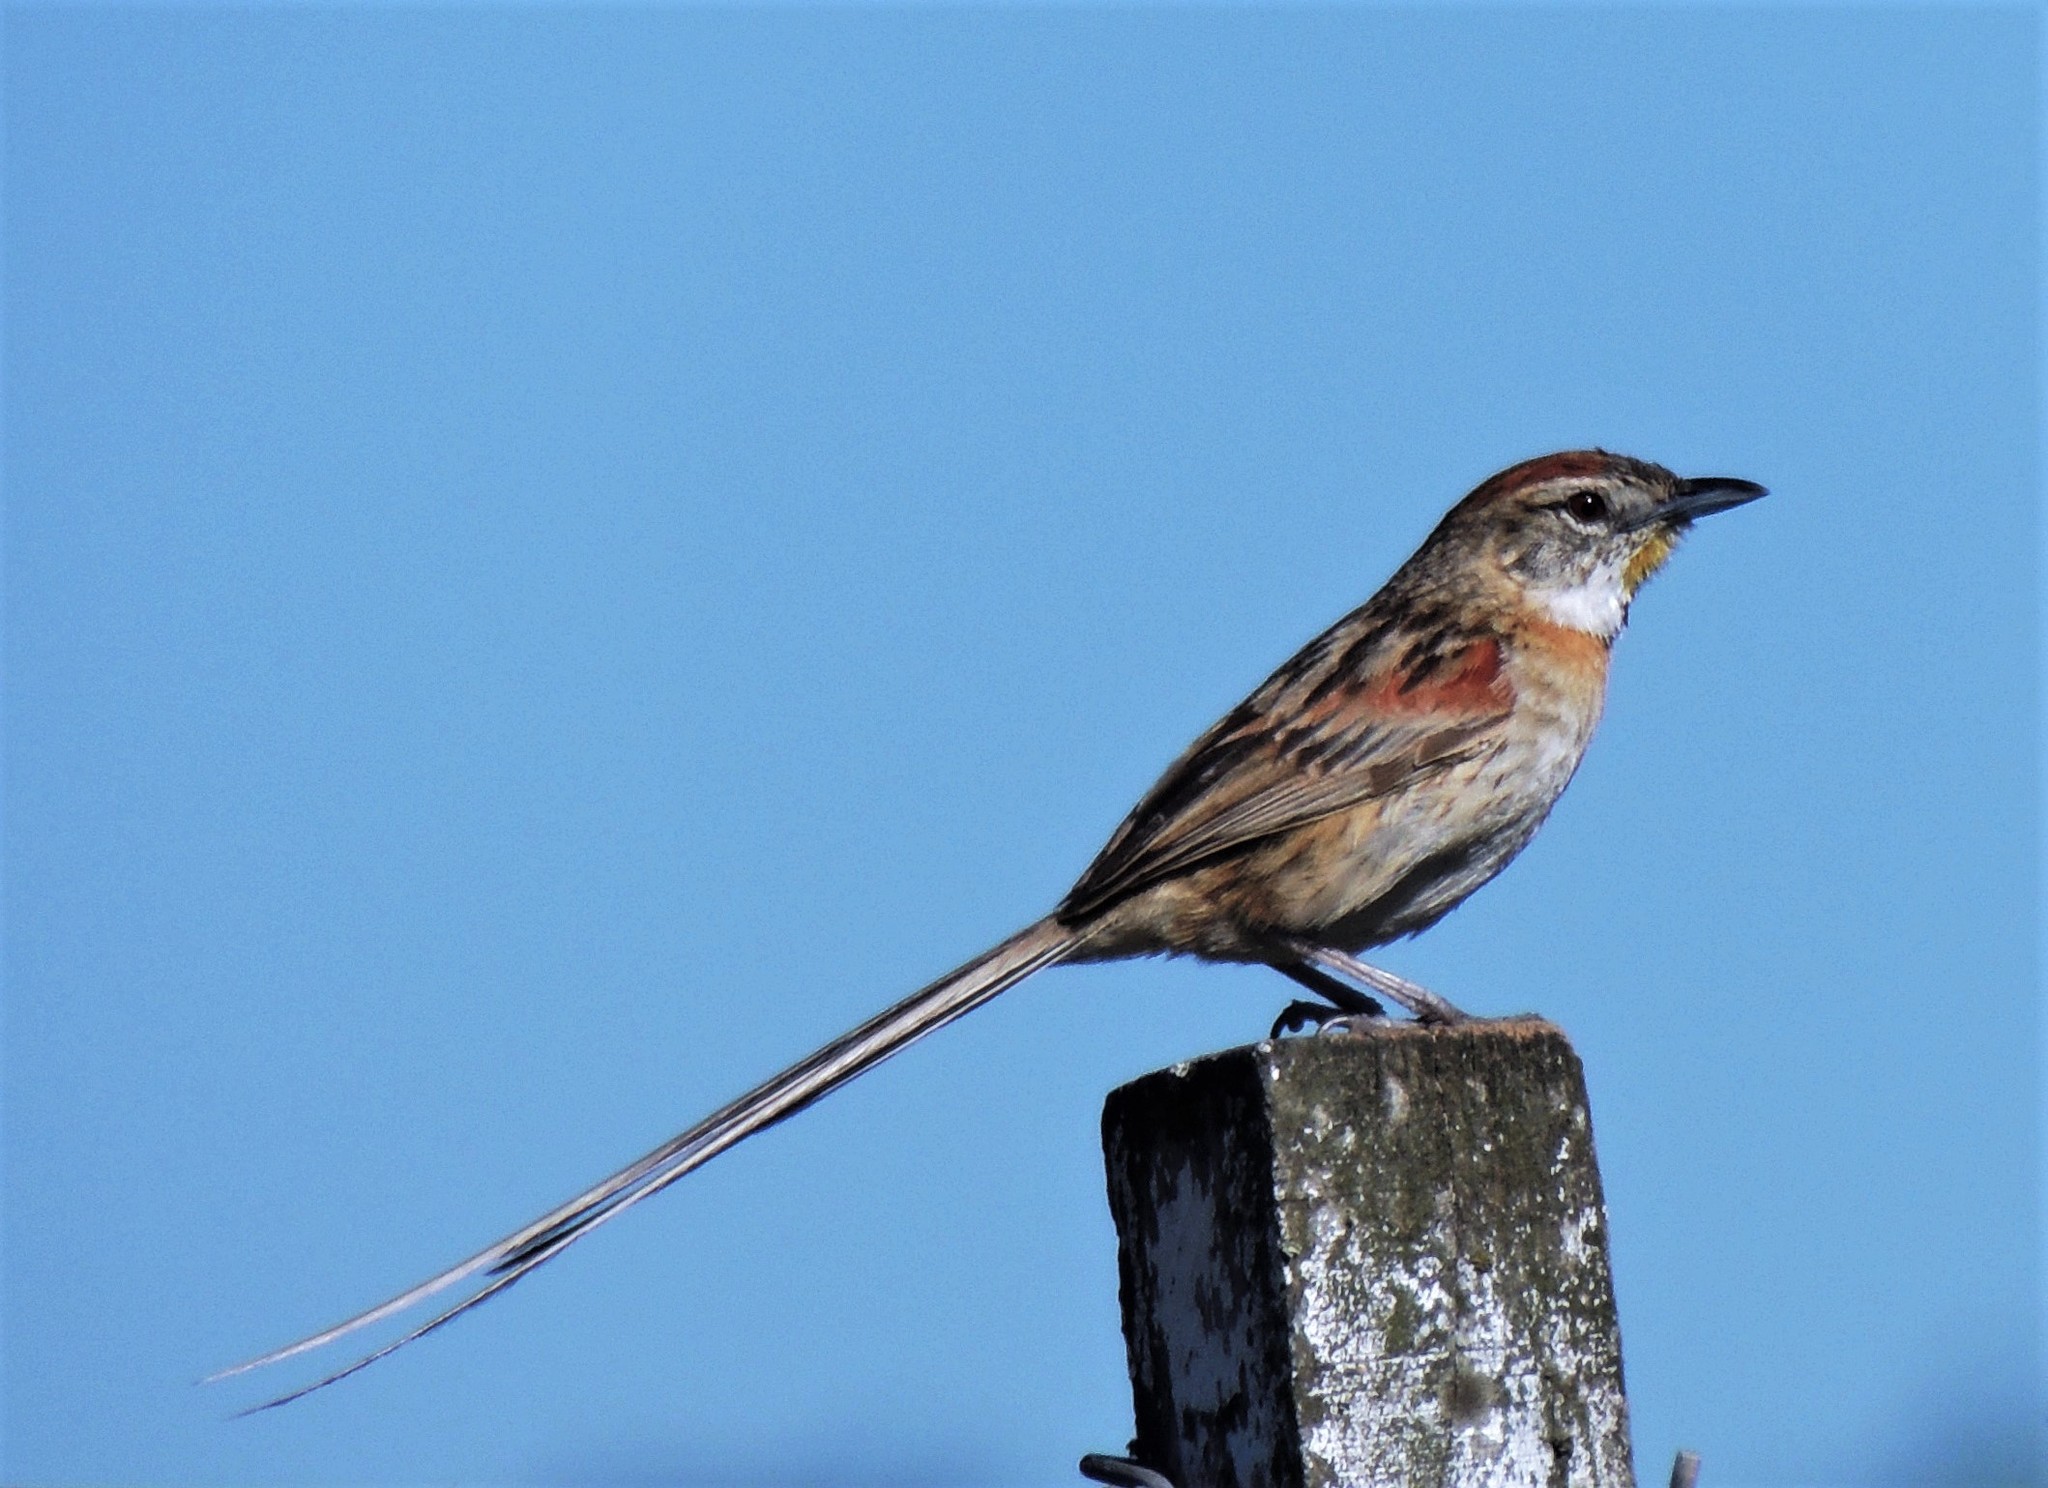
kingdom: Animalia
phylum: Chordata
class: Aves
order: Passeriformes
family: Furnariidae
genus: Schoeniophylax
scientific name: Schoeniophylax phryganophilus
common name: Chotoy spinetail
